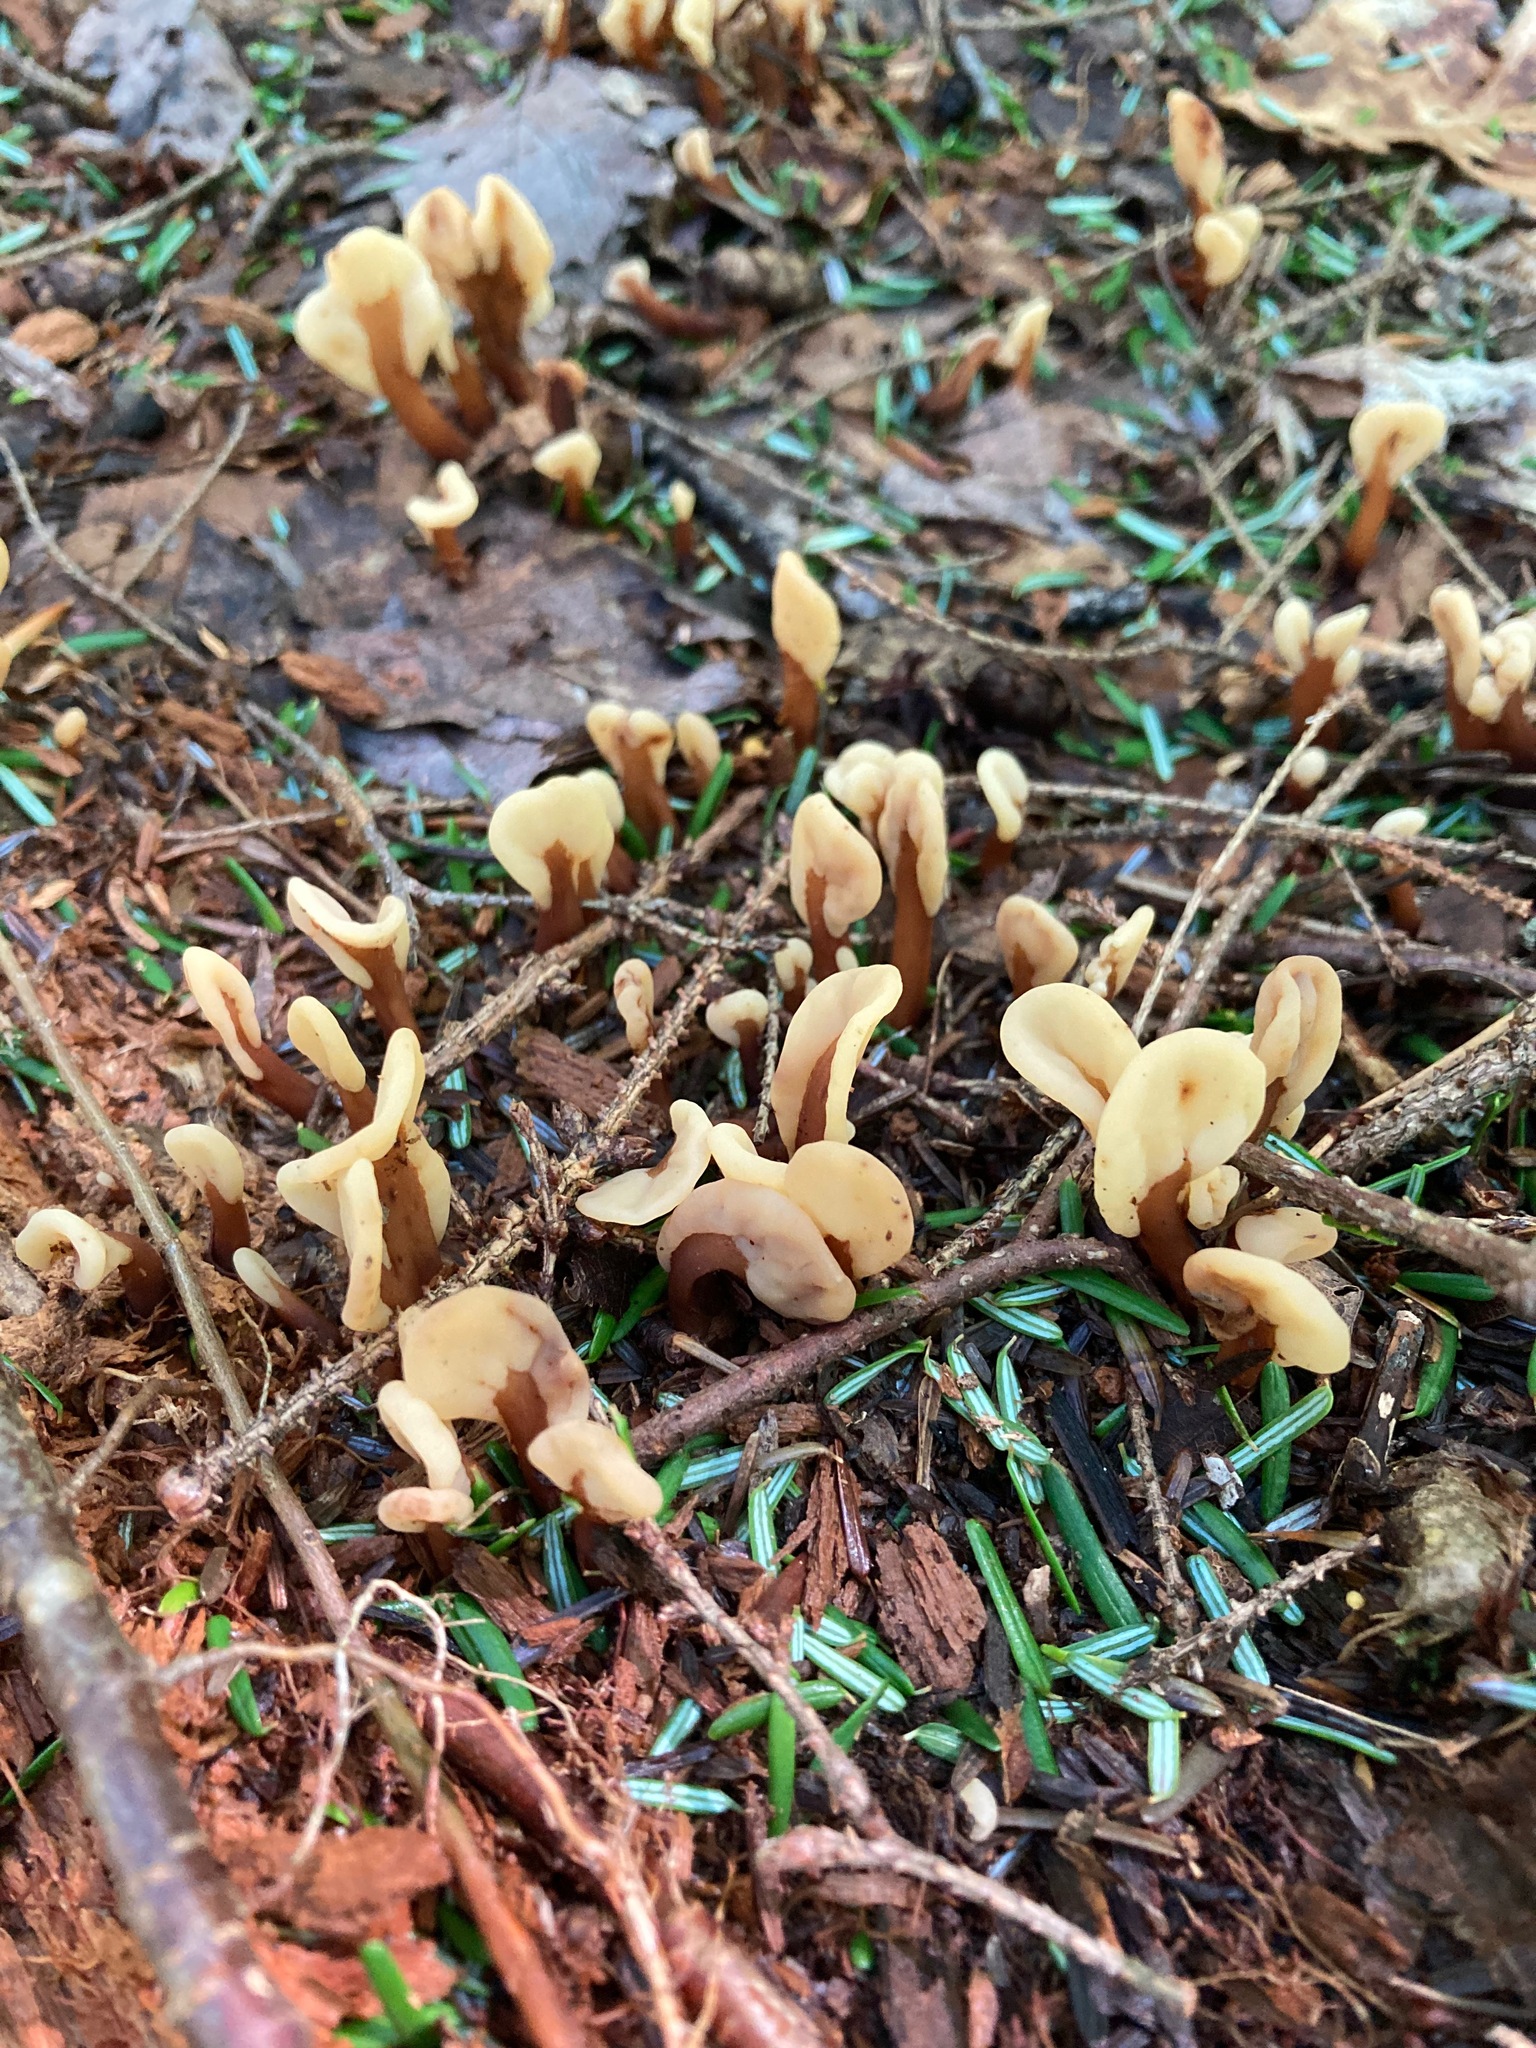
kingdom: Fungi
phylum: Ascomycota
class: Leotiomycetes
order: Rhytismatales
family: Cudoniaceae
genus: Spathulariopsis
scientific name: Spathulariopsis velutipes
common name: Velvet-foot fairy fan
